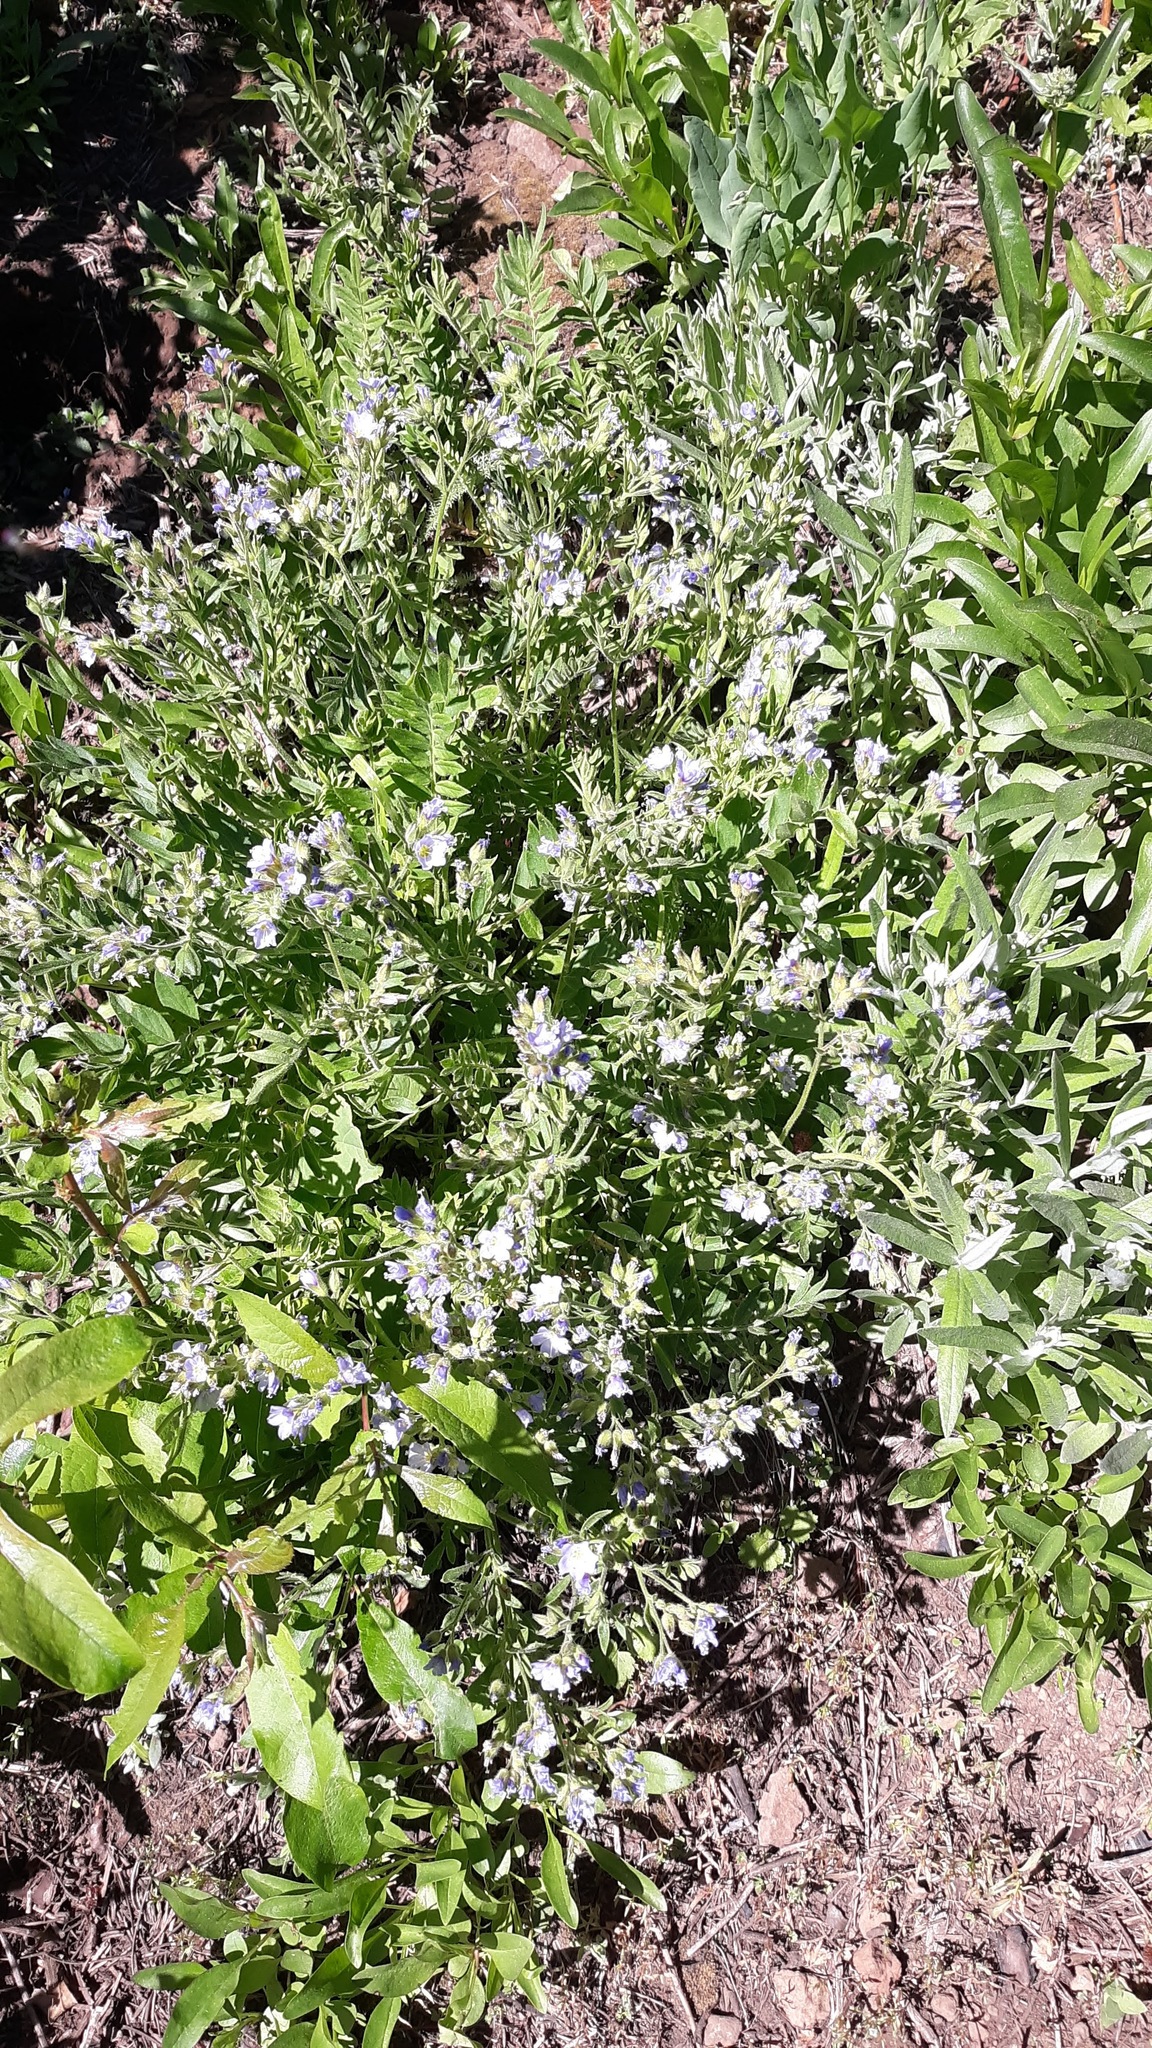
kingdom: Plantae
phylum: Tracheophyta
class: Magnoliopsida
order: Ericales
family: Polemoniaceae
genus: Polemonium
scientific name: Polemonium californicum
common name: California jacob's ladder
